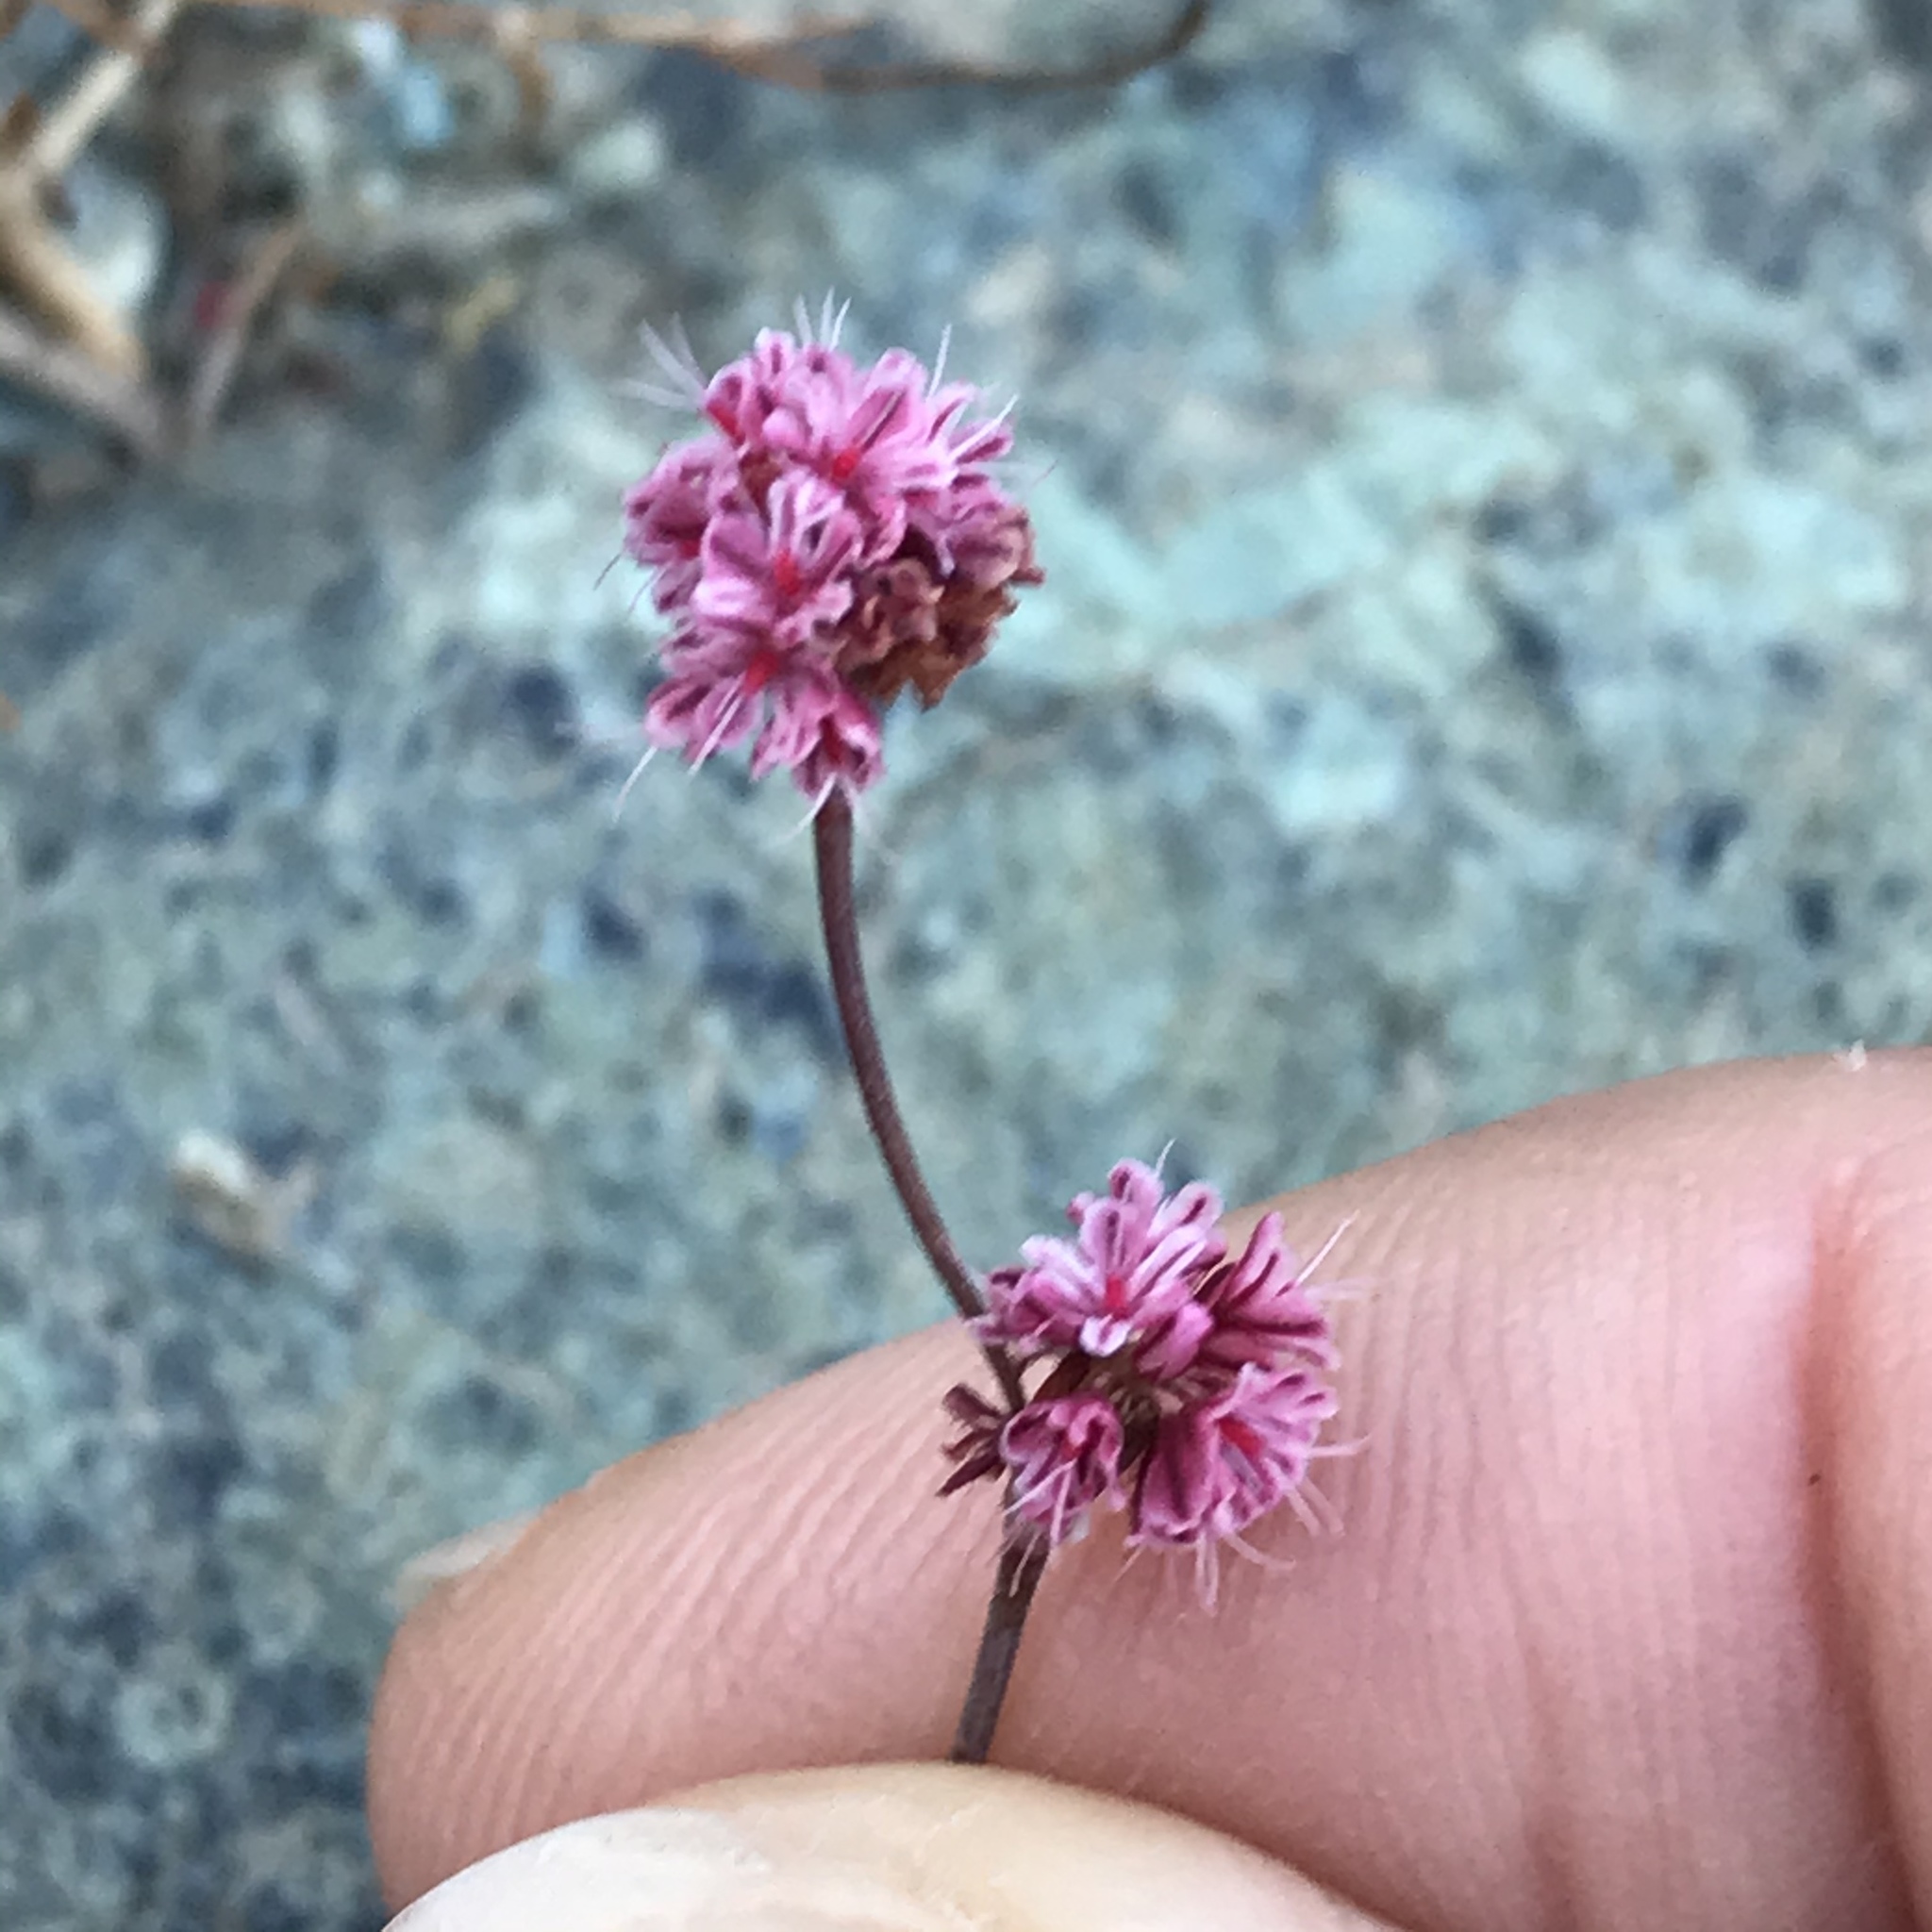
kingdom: Plantae
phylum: Tracheophyta
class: Magnoliopsida
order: Caryophyllales
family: Polygonaceae
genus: Eriogonum
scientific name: Eriogonum luteolum
